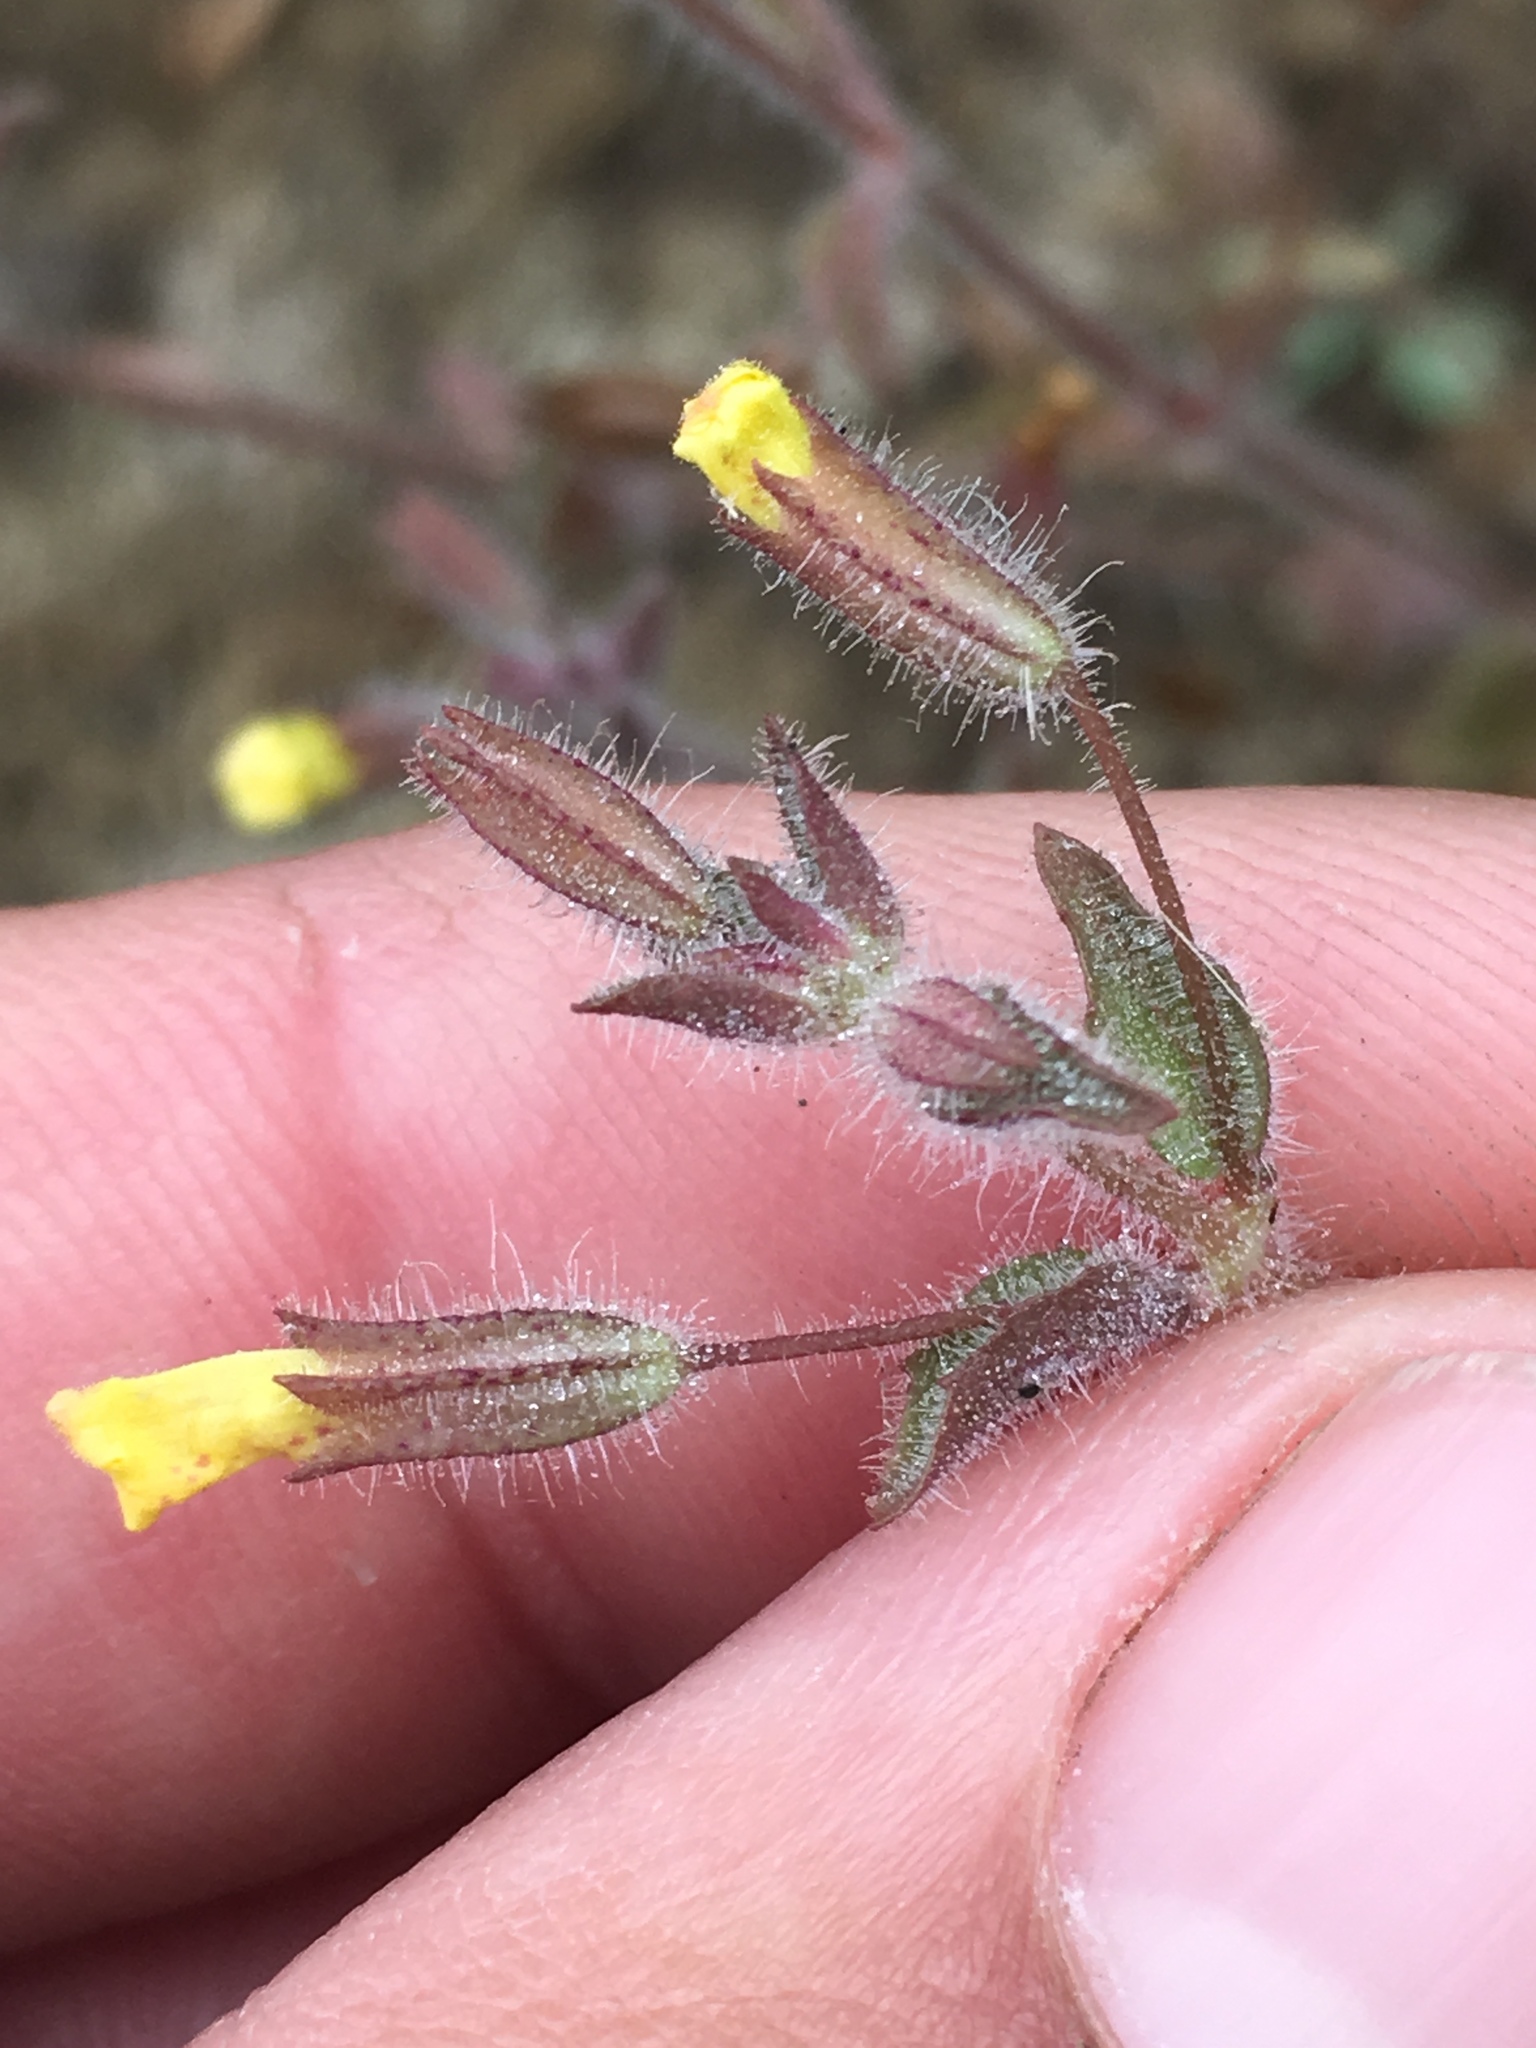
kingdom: Plantae
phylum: Tracheophyta
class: Magnoliopsida
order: Lamiales
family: Phrymaceae
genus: Erythranthe
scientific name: Erythranthe floribunda
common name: Floriferous monkeyflower
